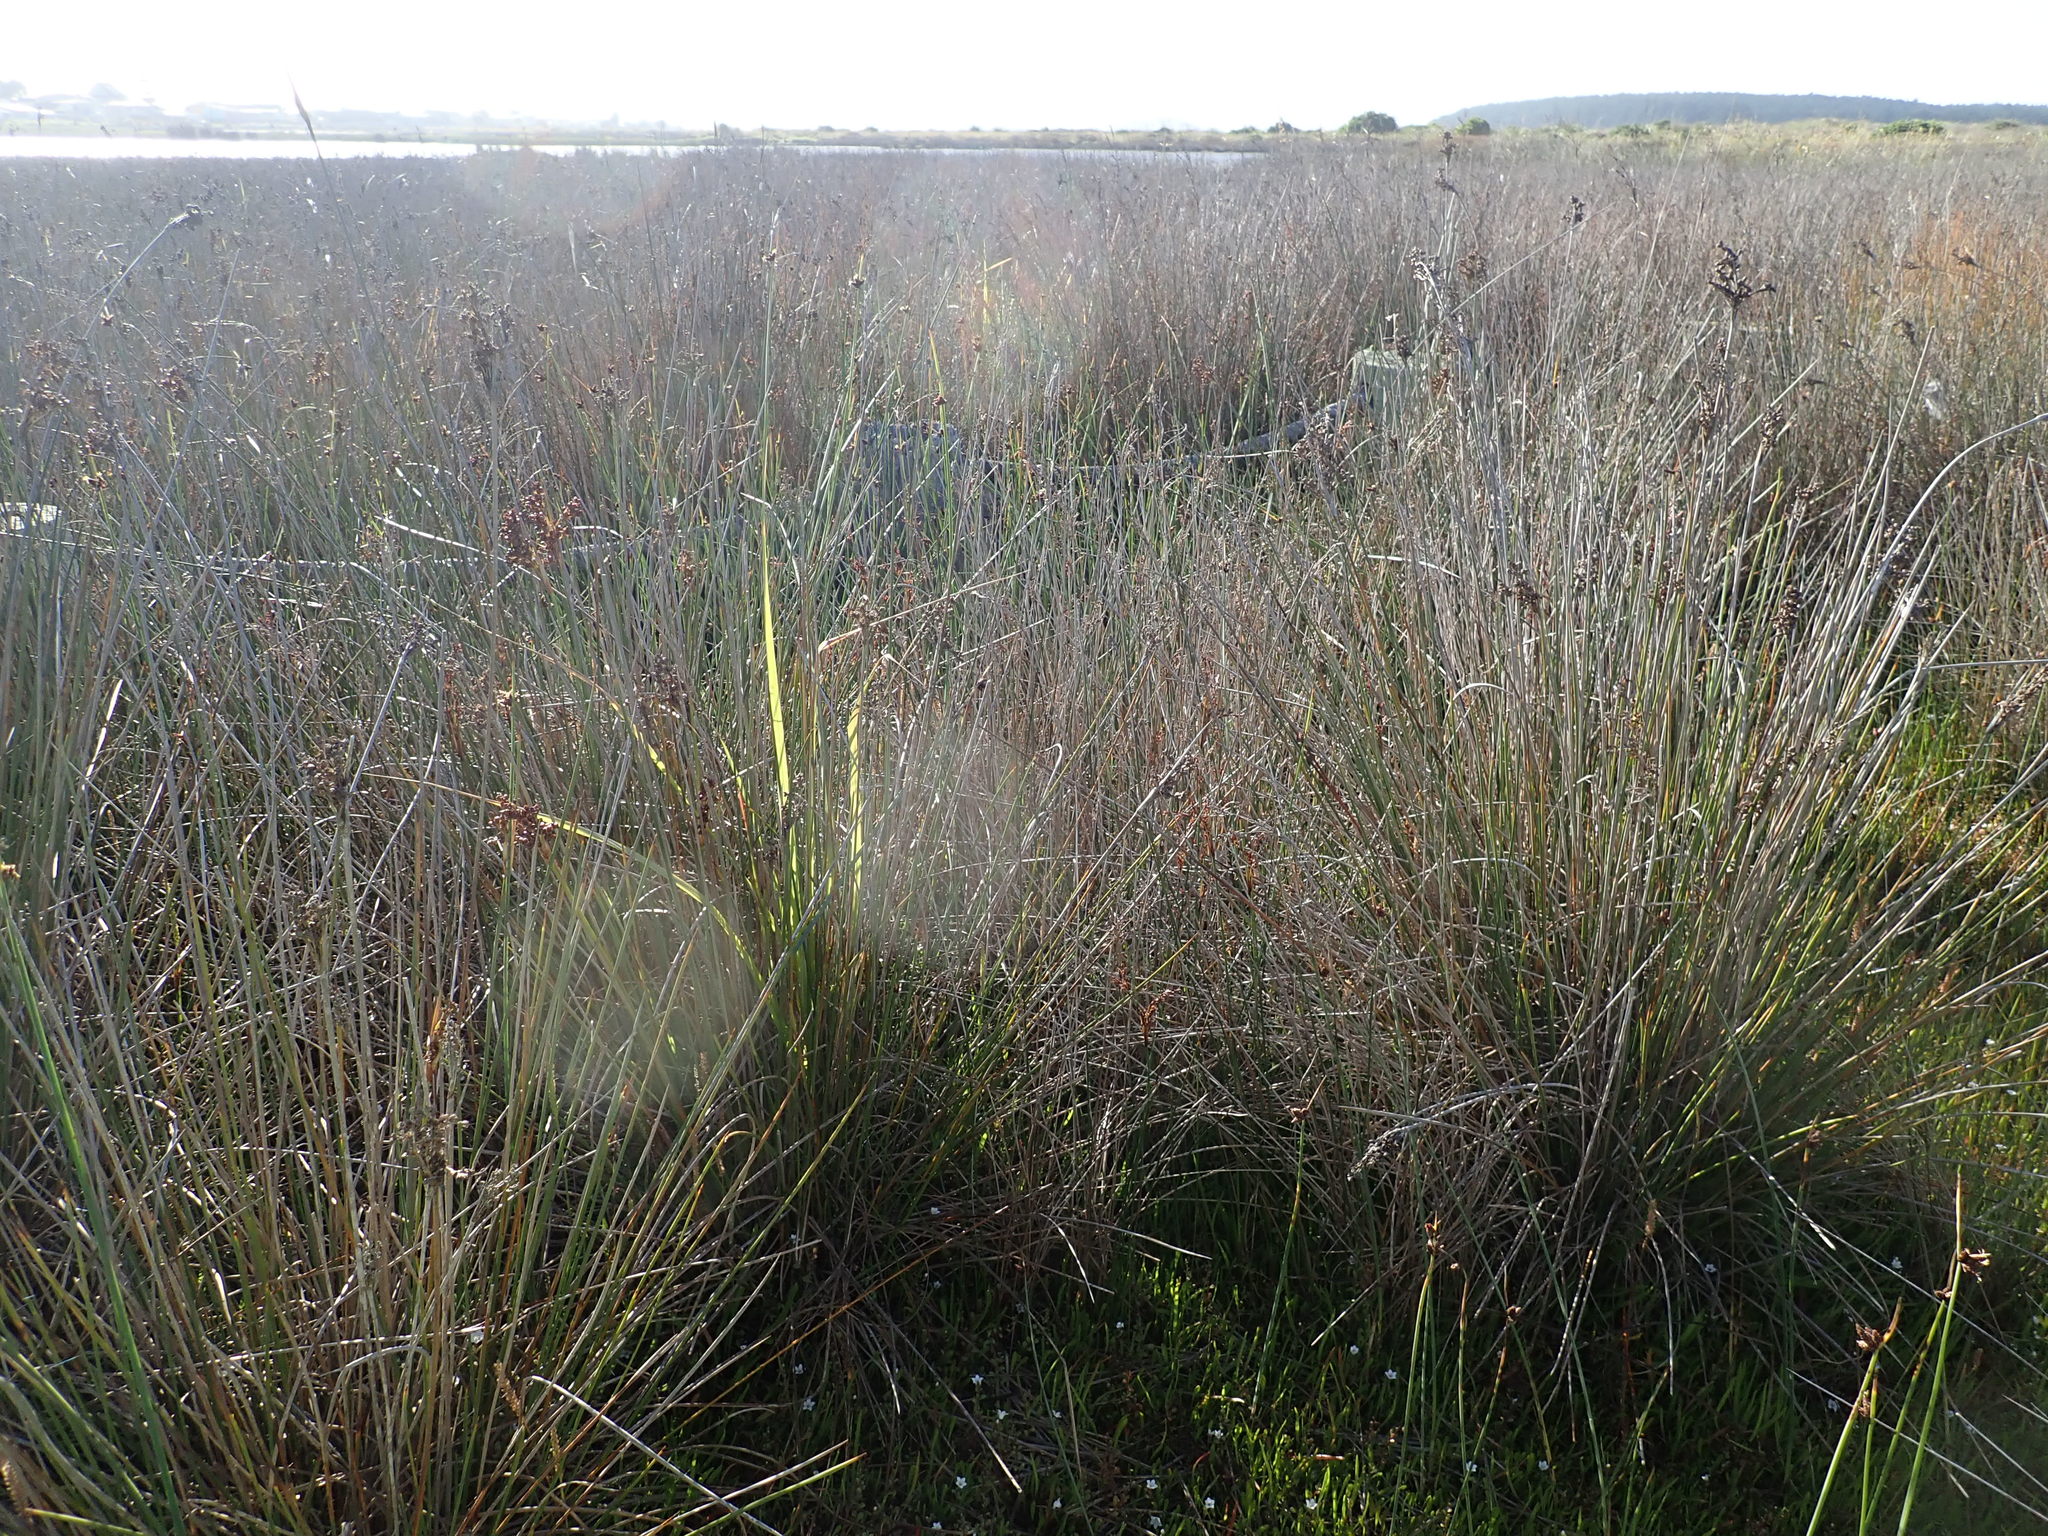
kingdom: Plantae
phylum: Tracheophyta
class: Liliopsida
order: Poales
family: Juncaceae
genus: Juncus
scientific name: Juncus acutus
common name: Sharp rush
